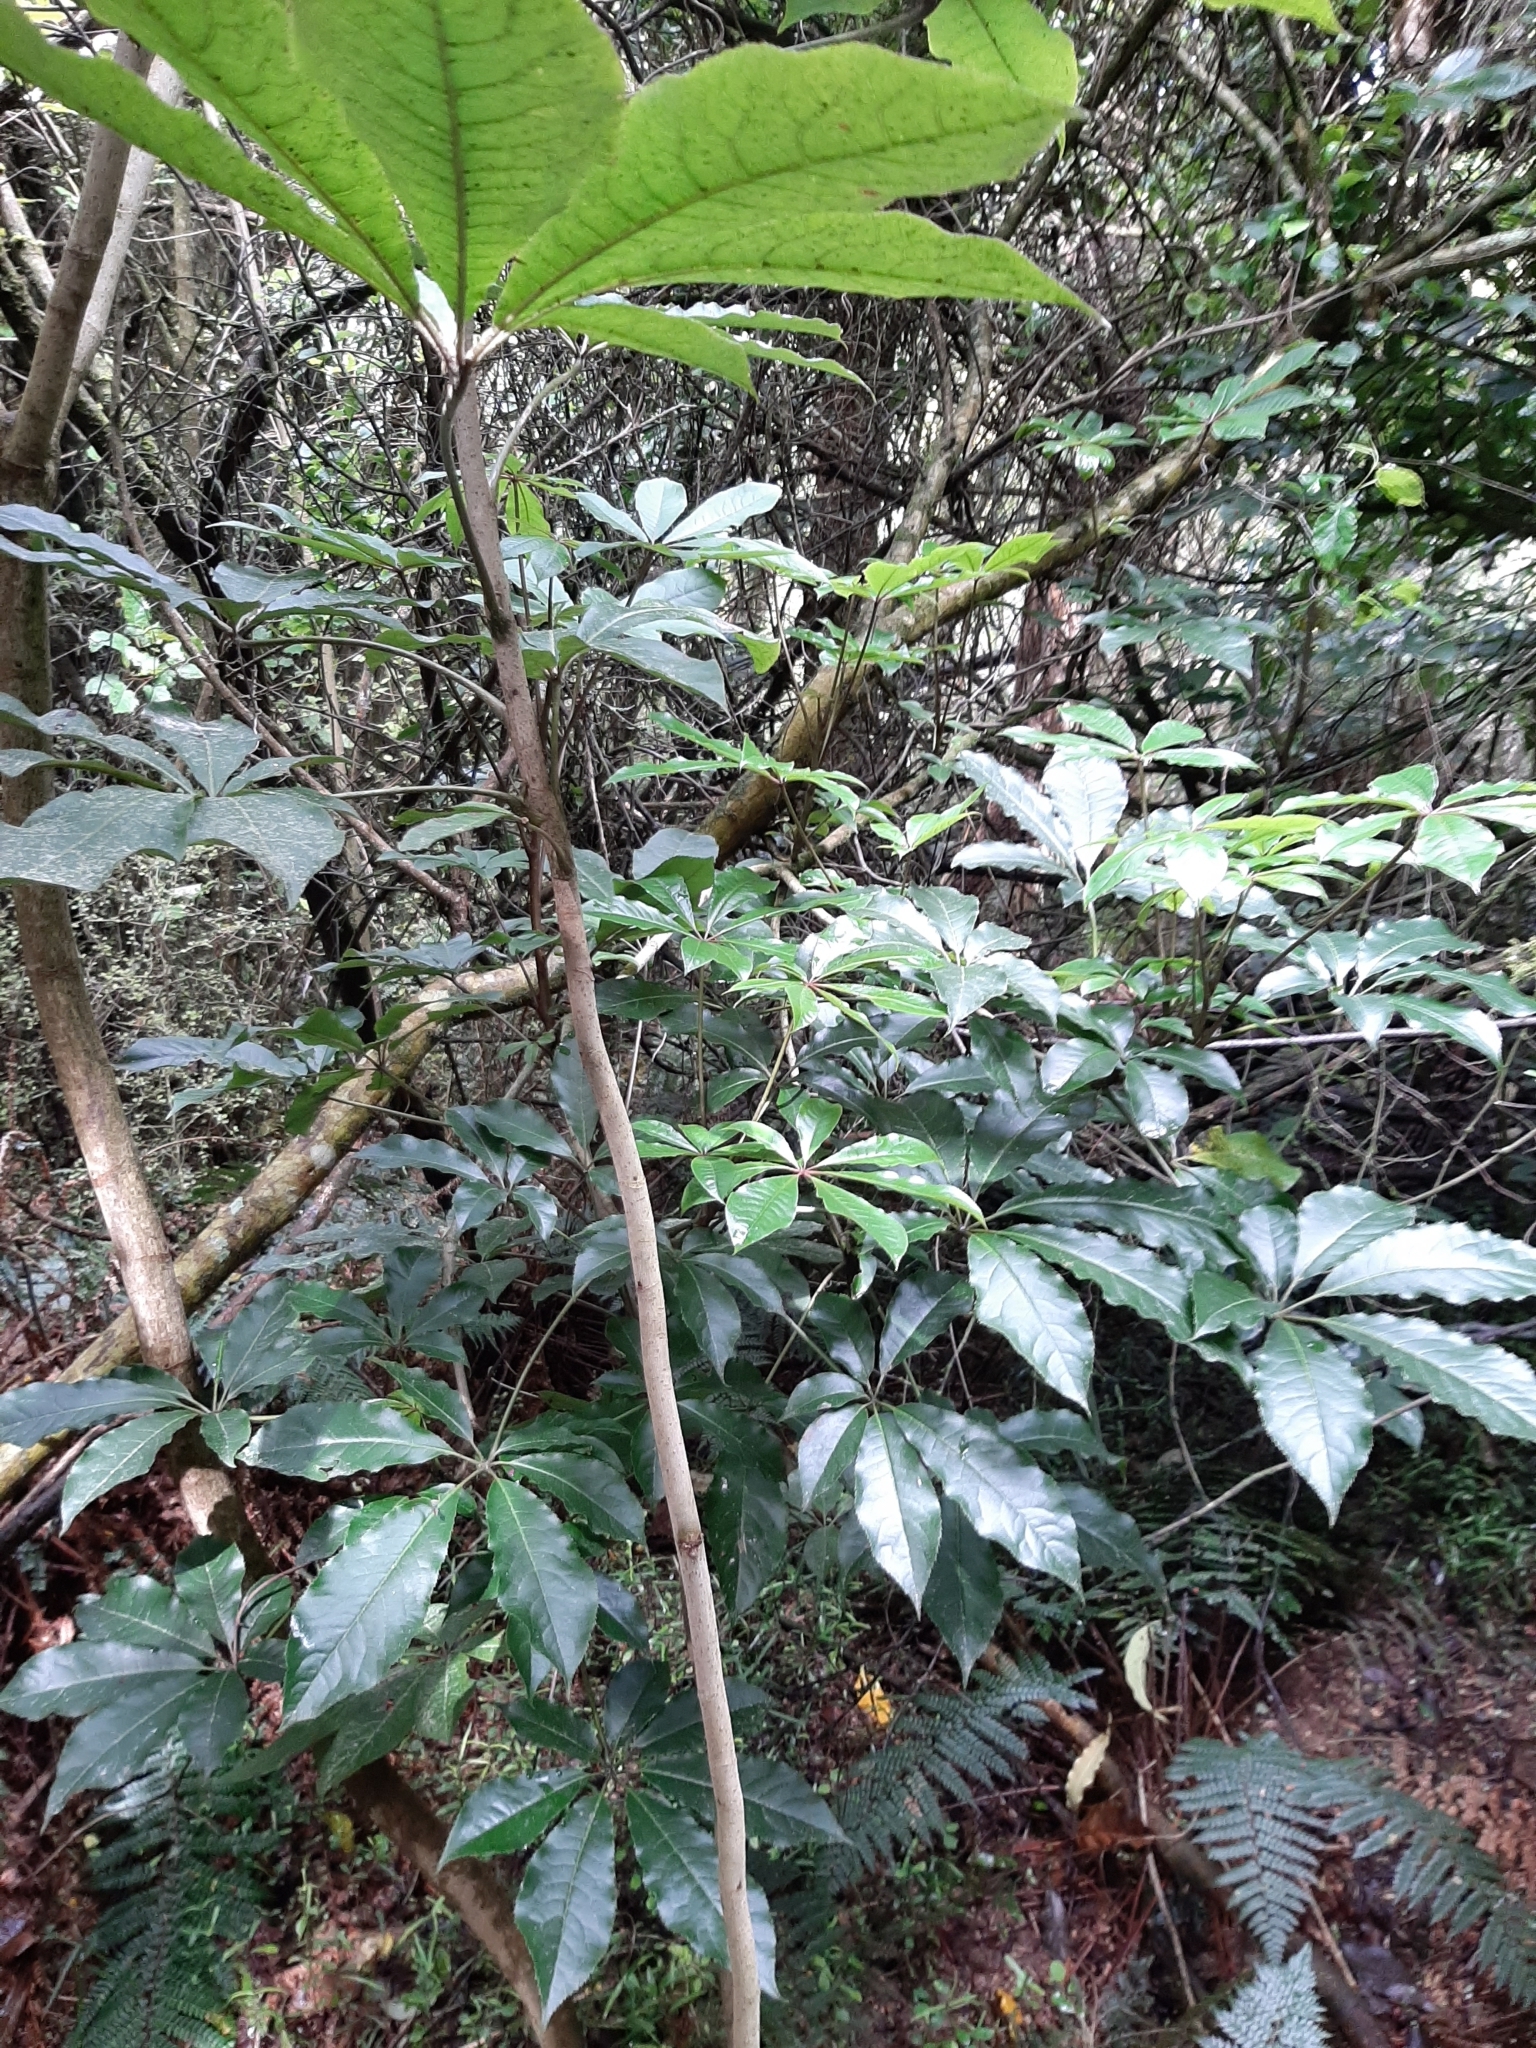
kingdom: Plantae
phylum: Tracheophyta
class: Magnoliopsida
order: Apiales
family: Araliaceae
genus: Schefflera
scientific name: Schefflera digitata
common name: Pate
